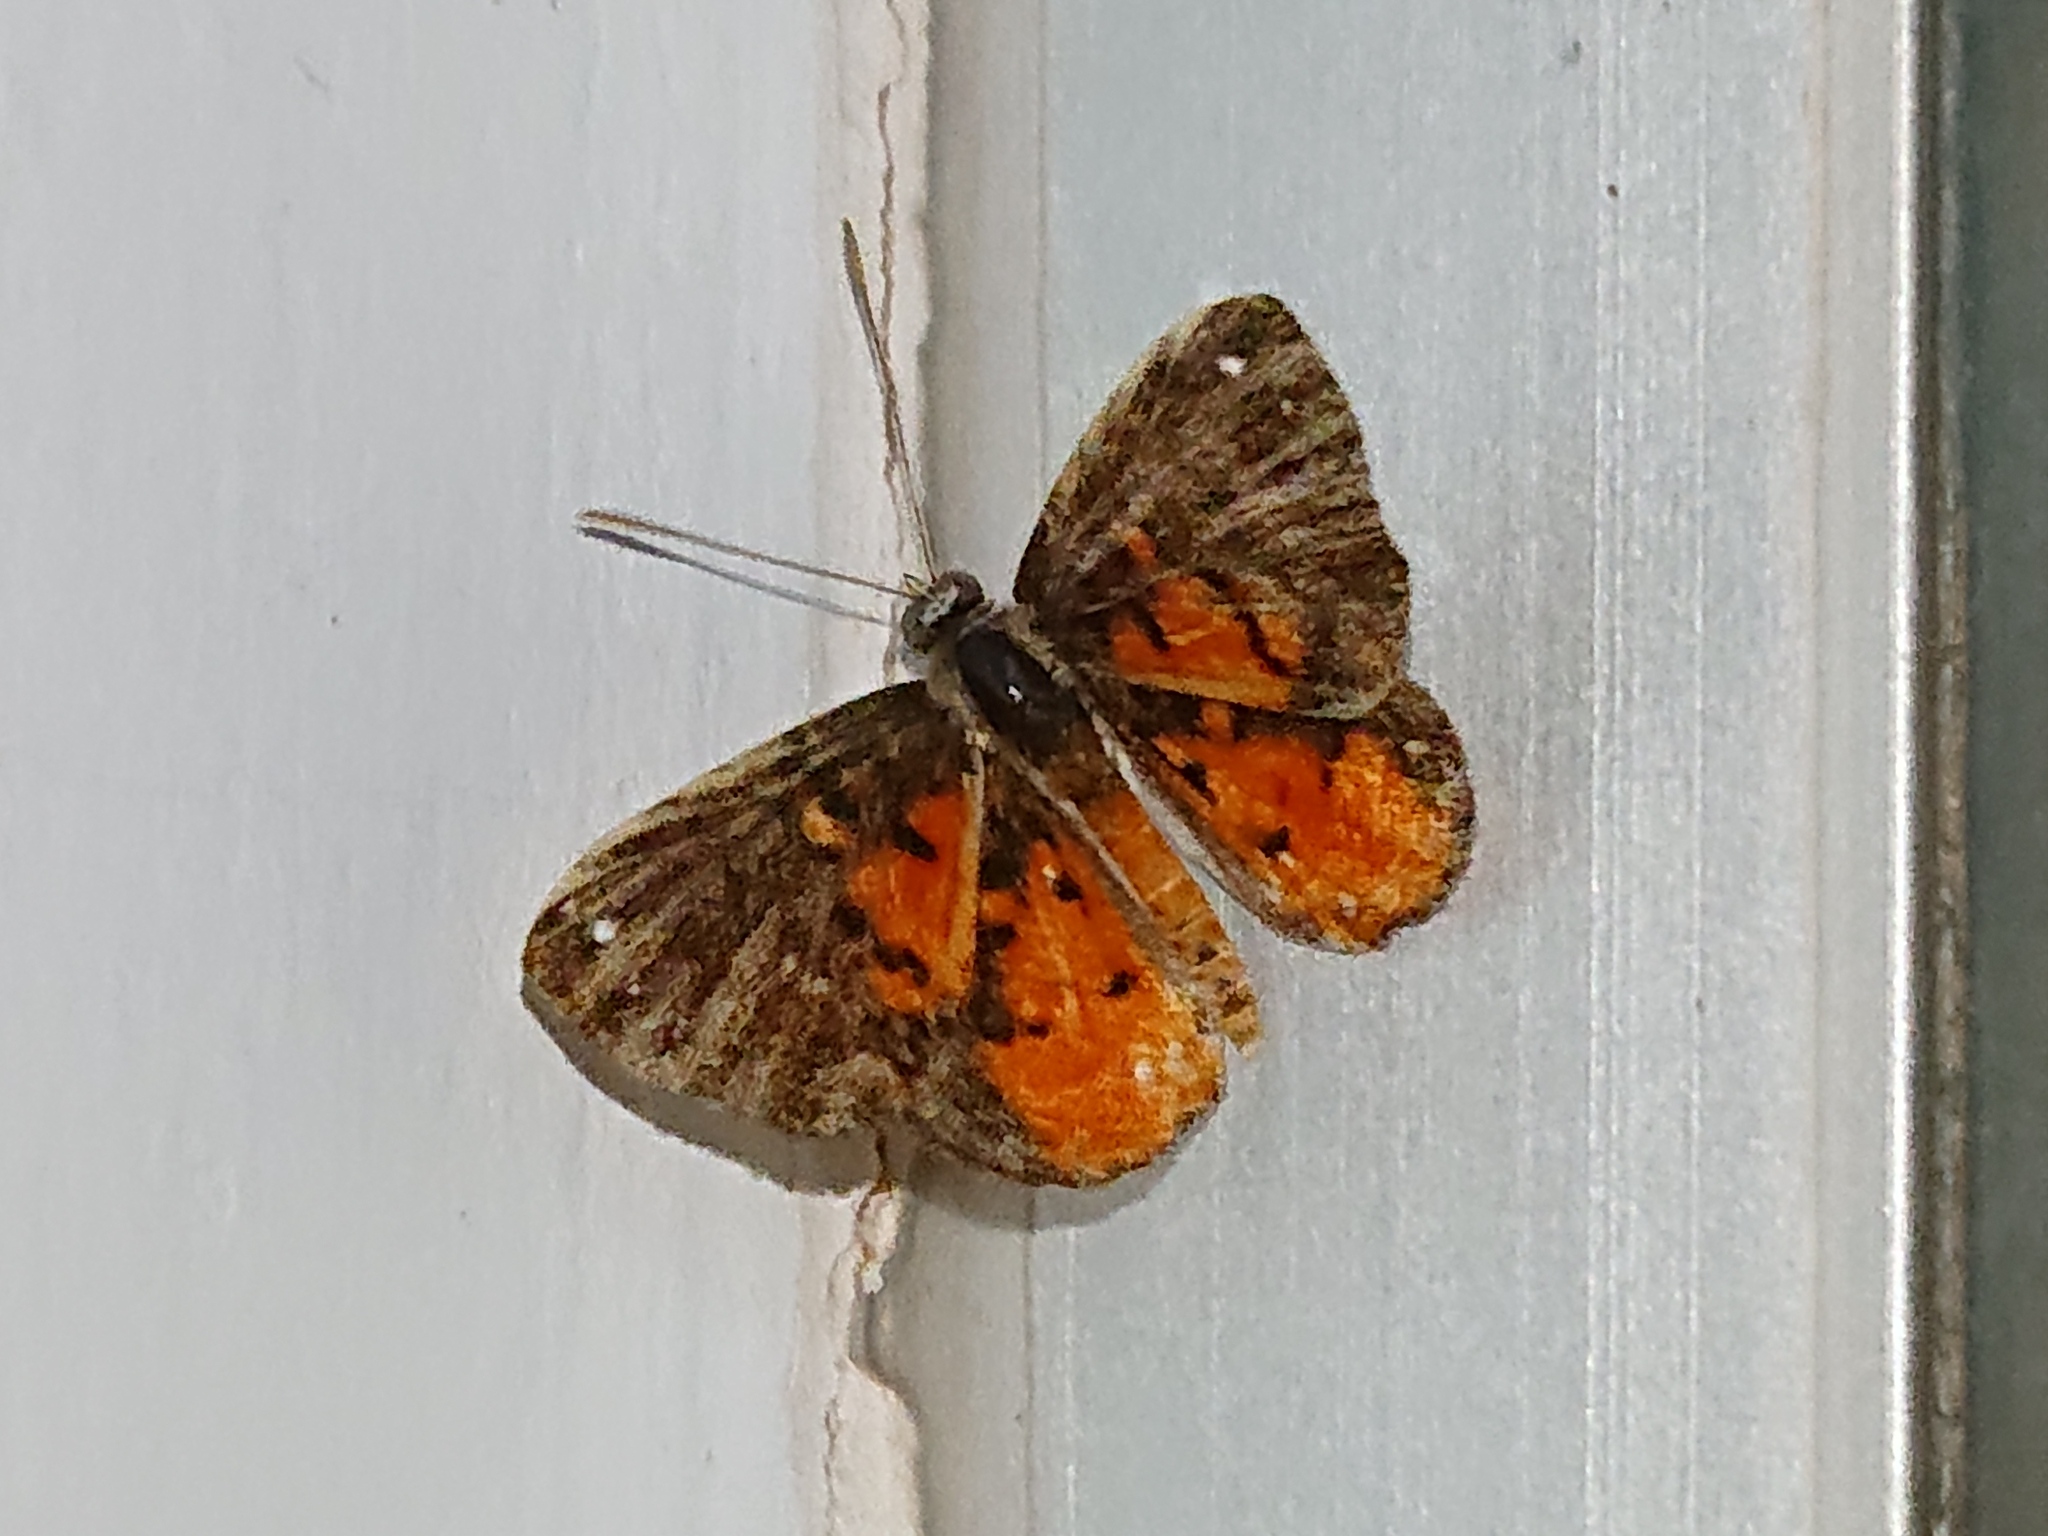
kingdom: Animalia
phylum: Arthropoda
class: Insecta
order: Lepidoptera
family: Riodinidae
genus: Polystichtis
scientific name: Polystichtis emylius
